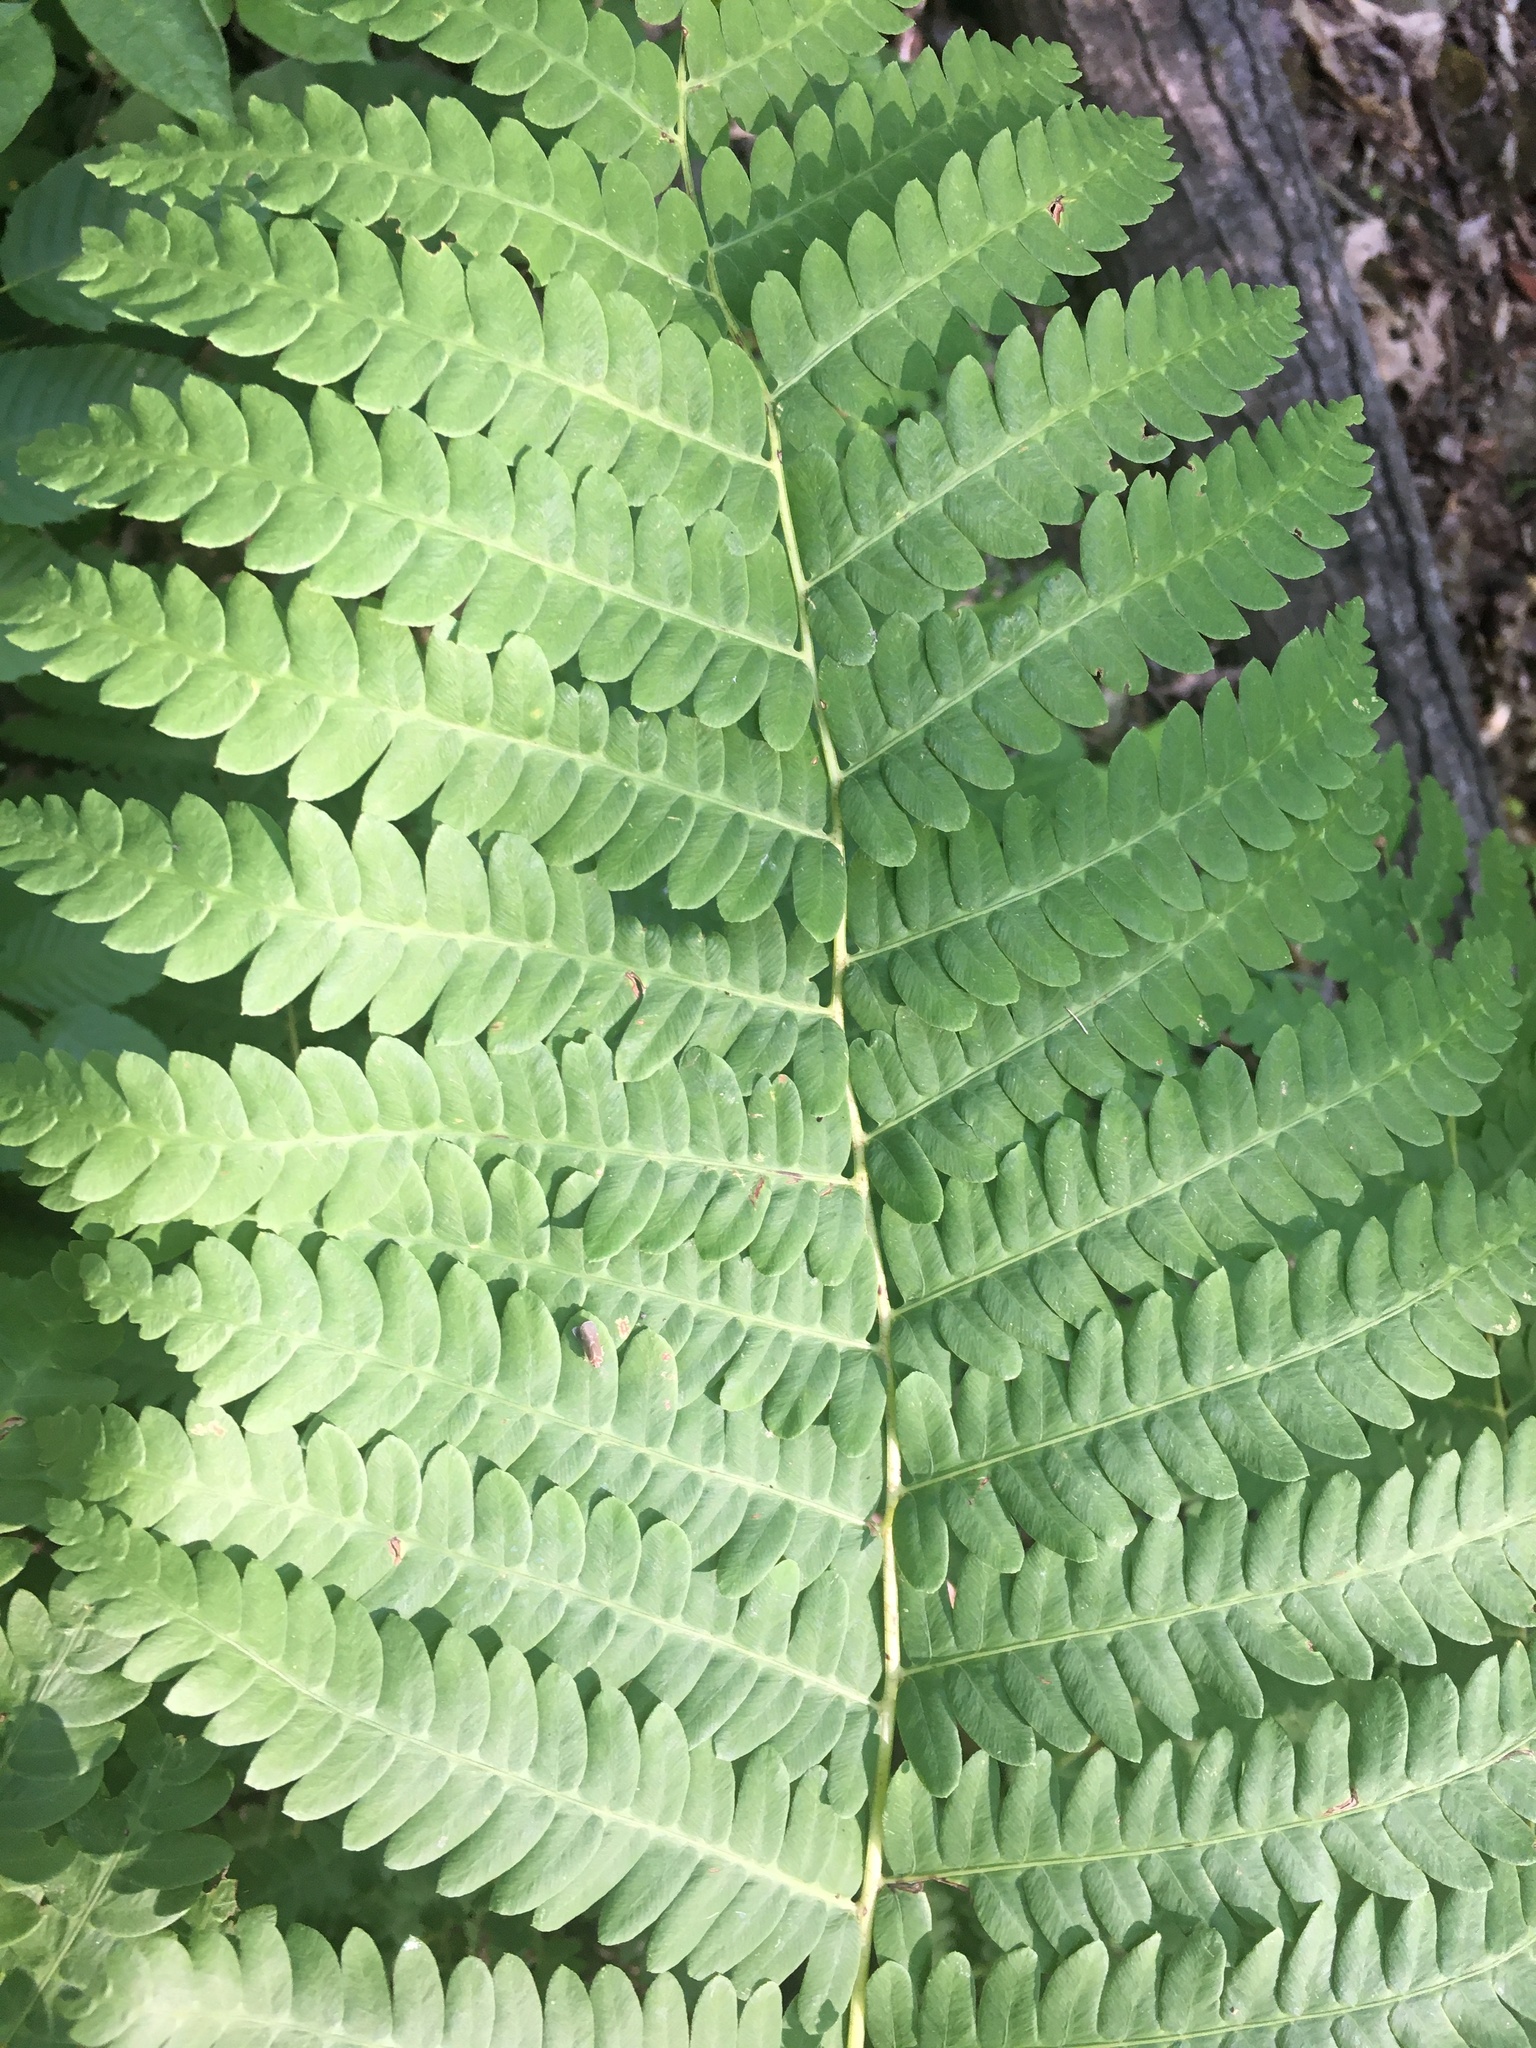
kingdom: Plantae
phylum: Tracheophyta
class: Polypodiopsida
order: Osmundales
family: Osmundaceae
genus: Claytosmunda
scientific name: Claytosmunda claytoniana
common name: Clayton's fern
